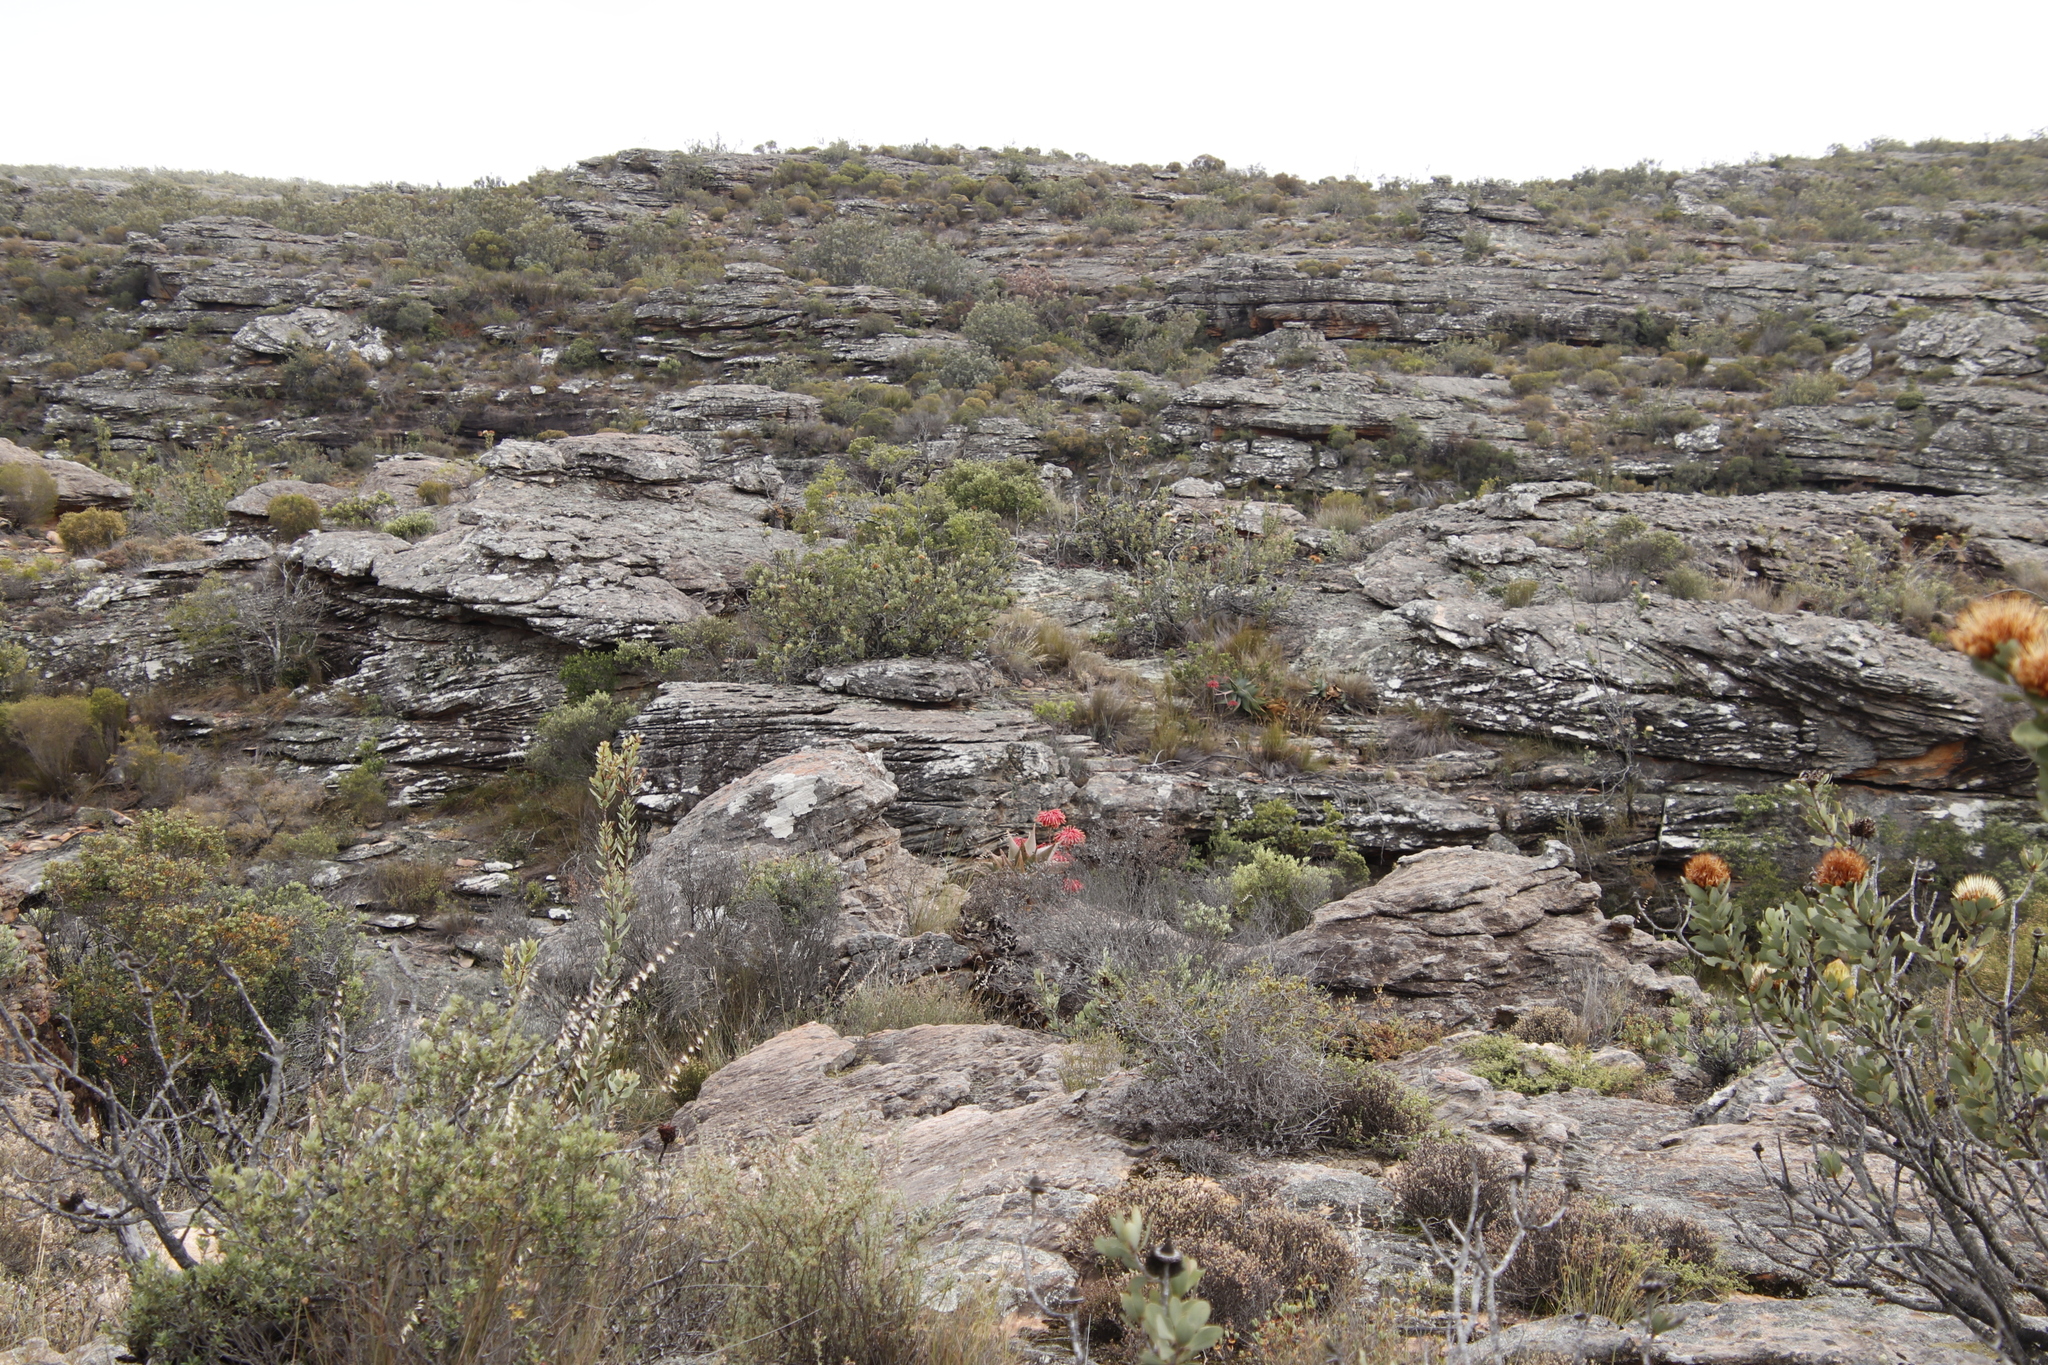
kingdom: Plantae
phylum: Tracheophyta
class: Liliopsida
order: Asparagales
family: Asphodelaceae
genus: Aloe
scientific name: Aloe perfoliata
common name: Mitra aloe
